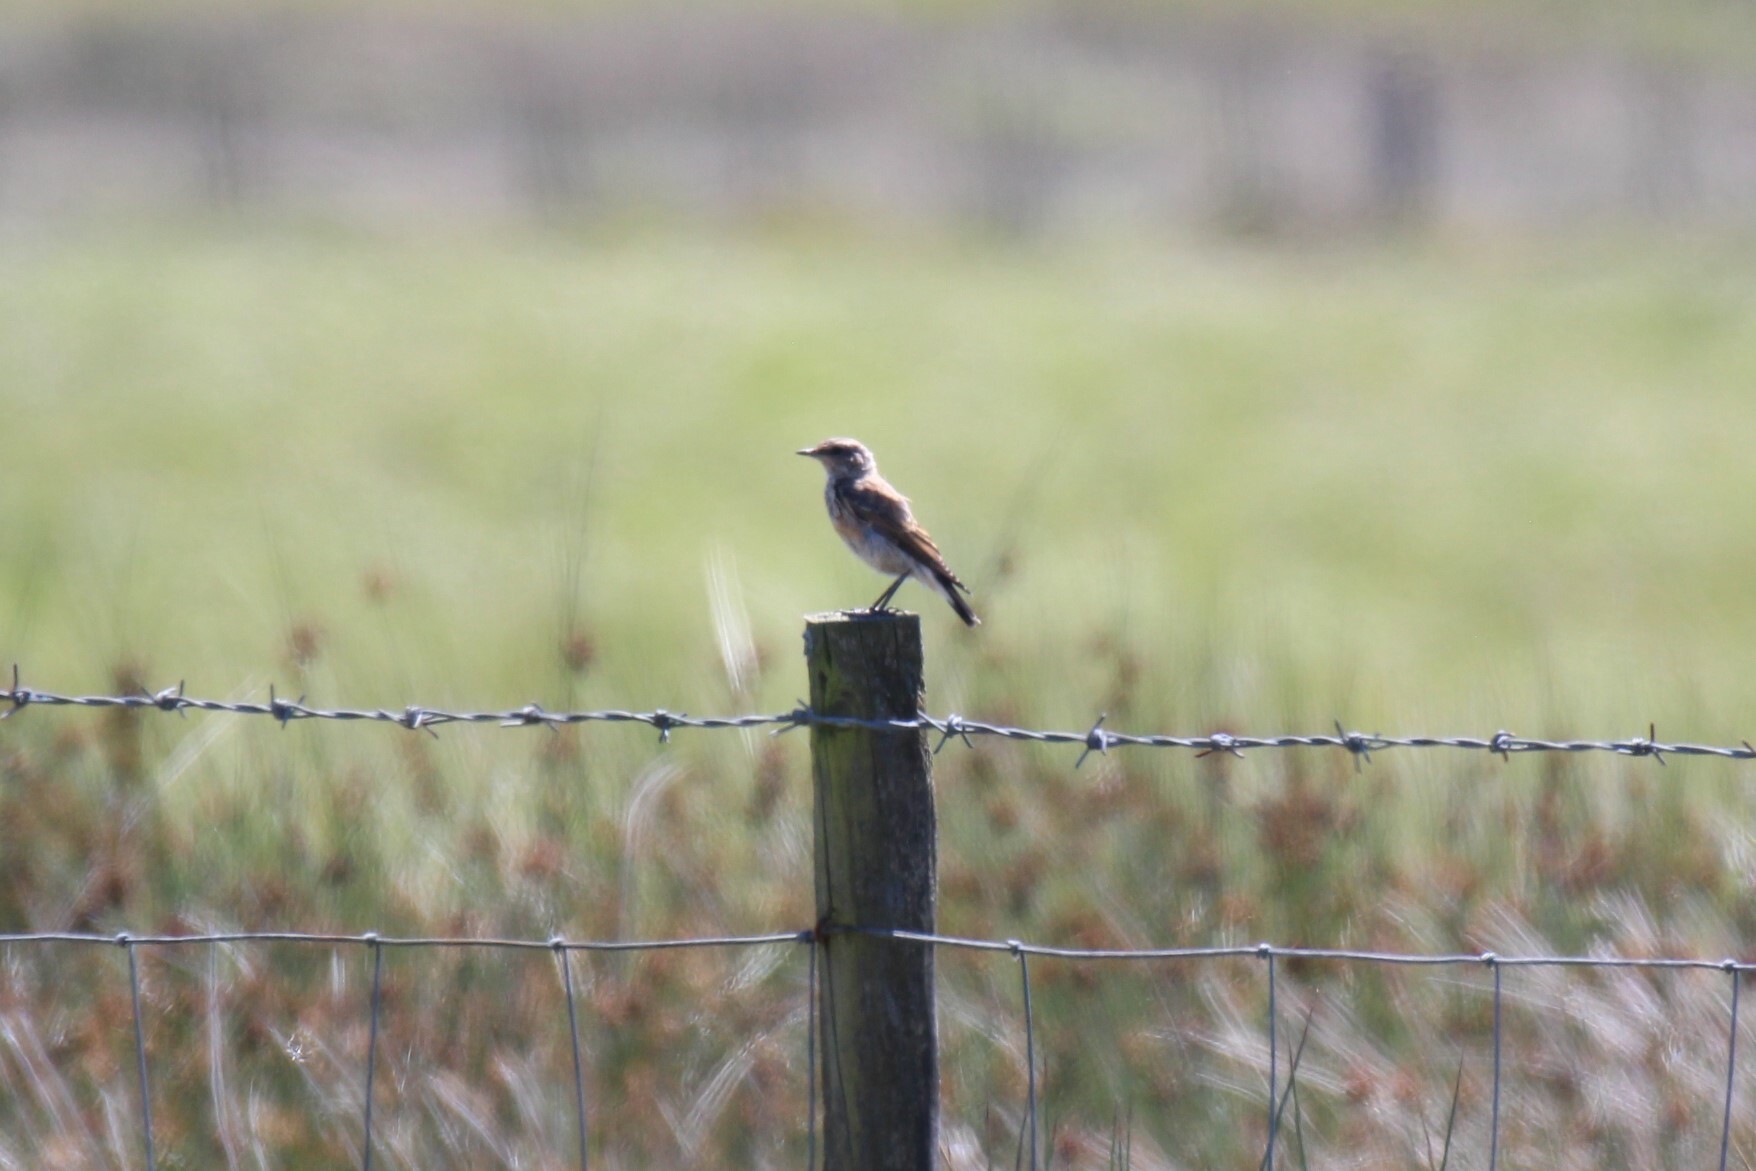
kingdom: Animalia
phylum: Chordata
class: Aves
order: Passeriformes
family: Muscicapidae
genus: Oenanthe
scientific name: Oenanthe oenanthe
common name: Northern wheatear
